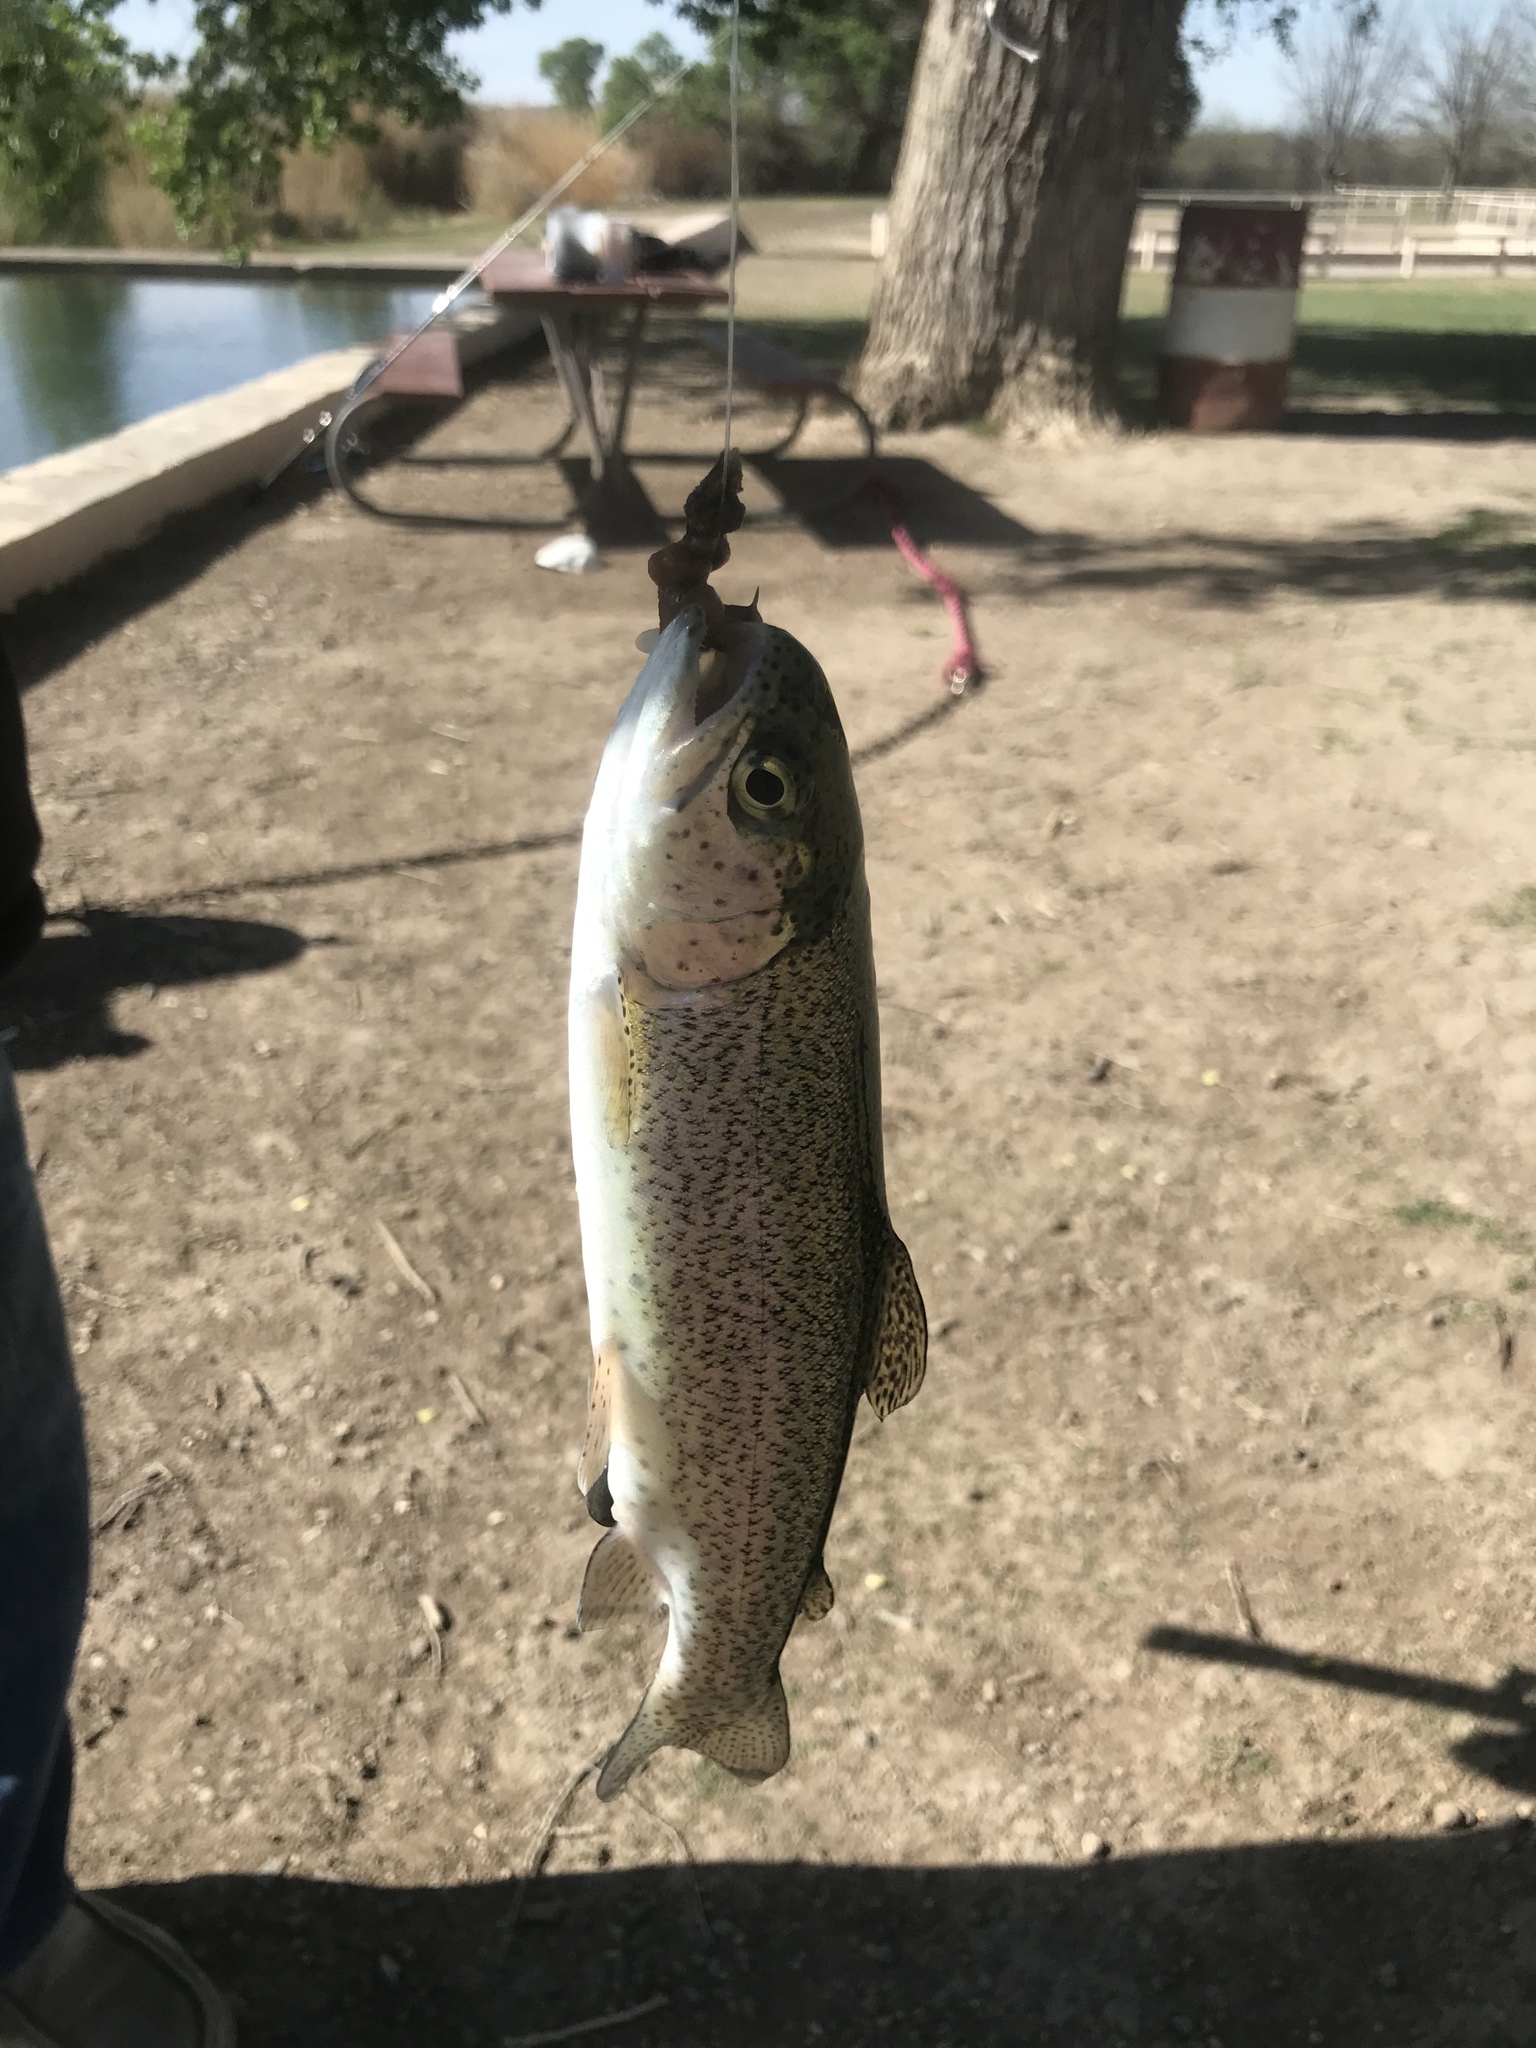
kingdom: Animalia
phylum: Chordata
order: Salmoniformes
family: Salmonidae
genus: Oncorhynchus
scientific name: Oncorhynchus mykiss
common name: Rainbow trout
